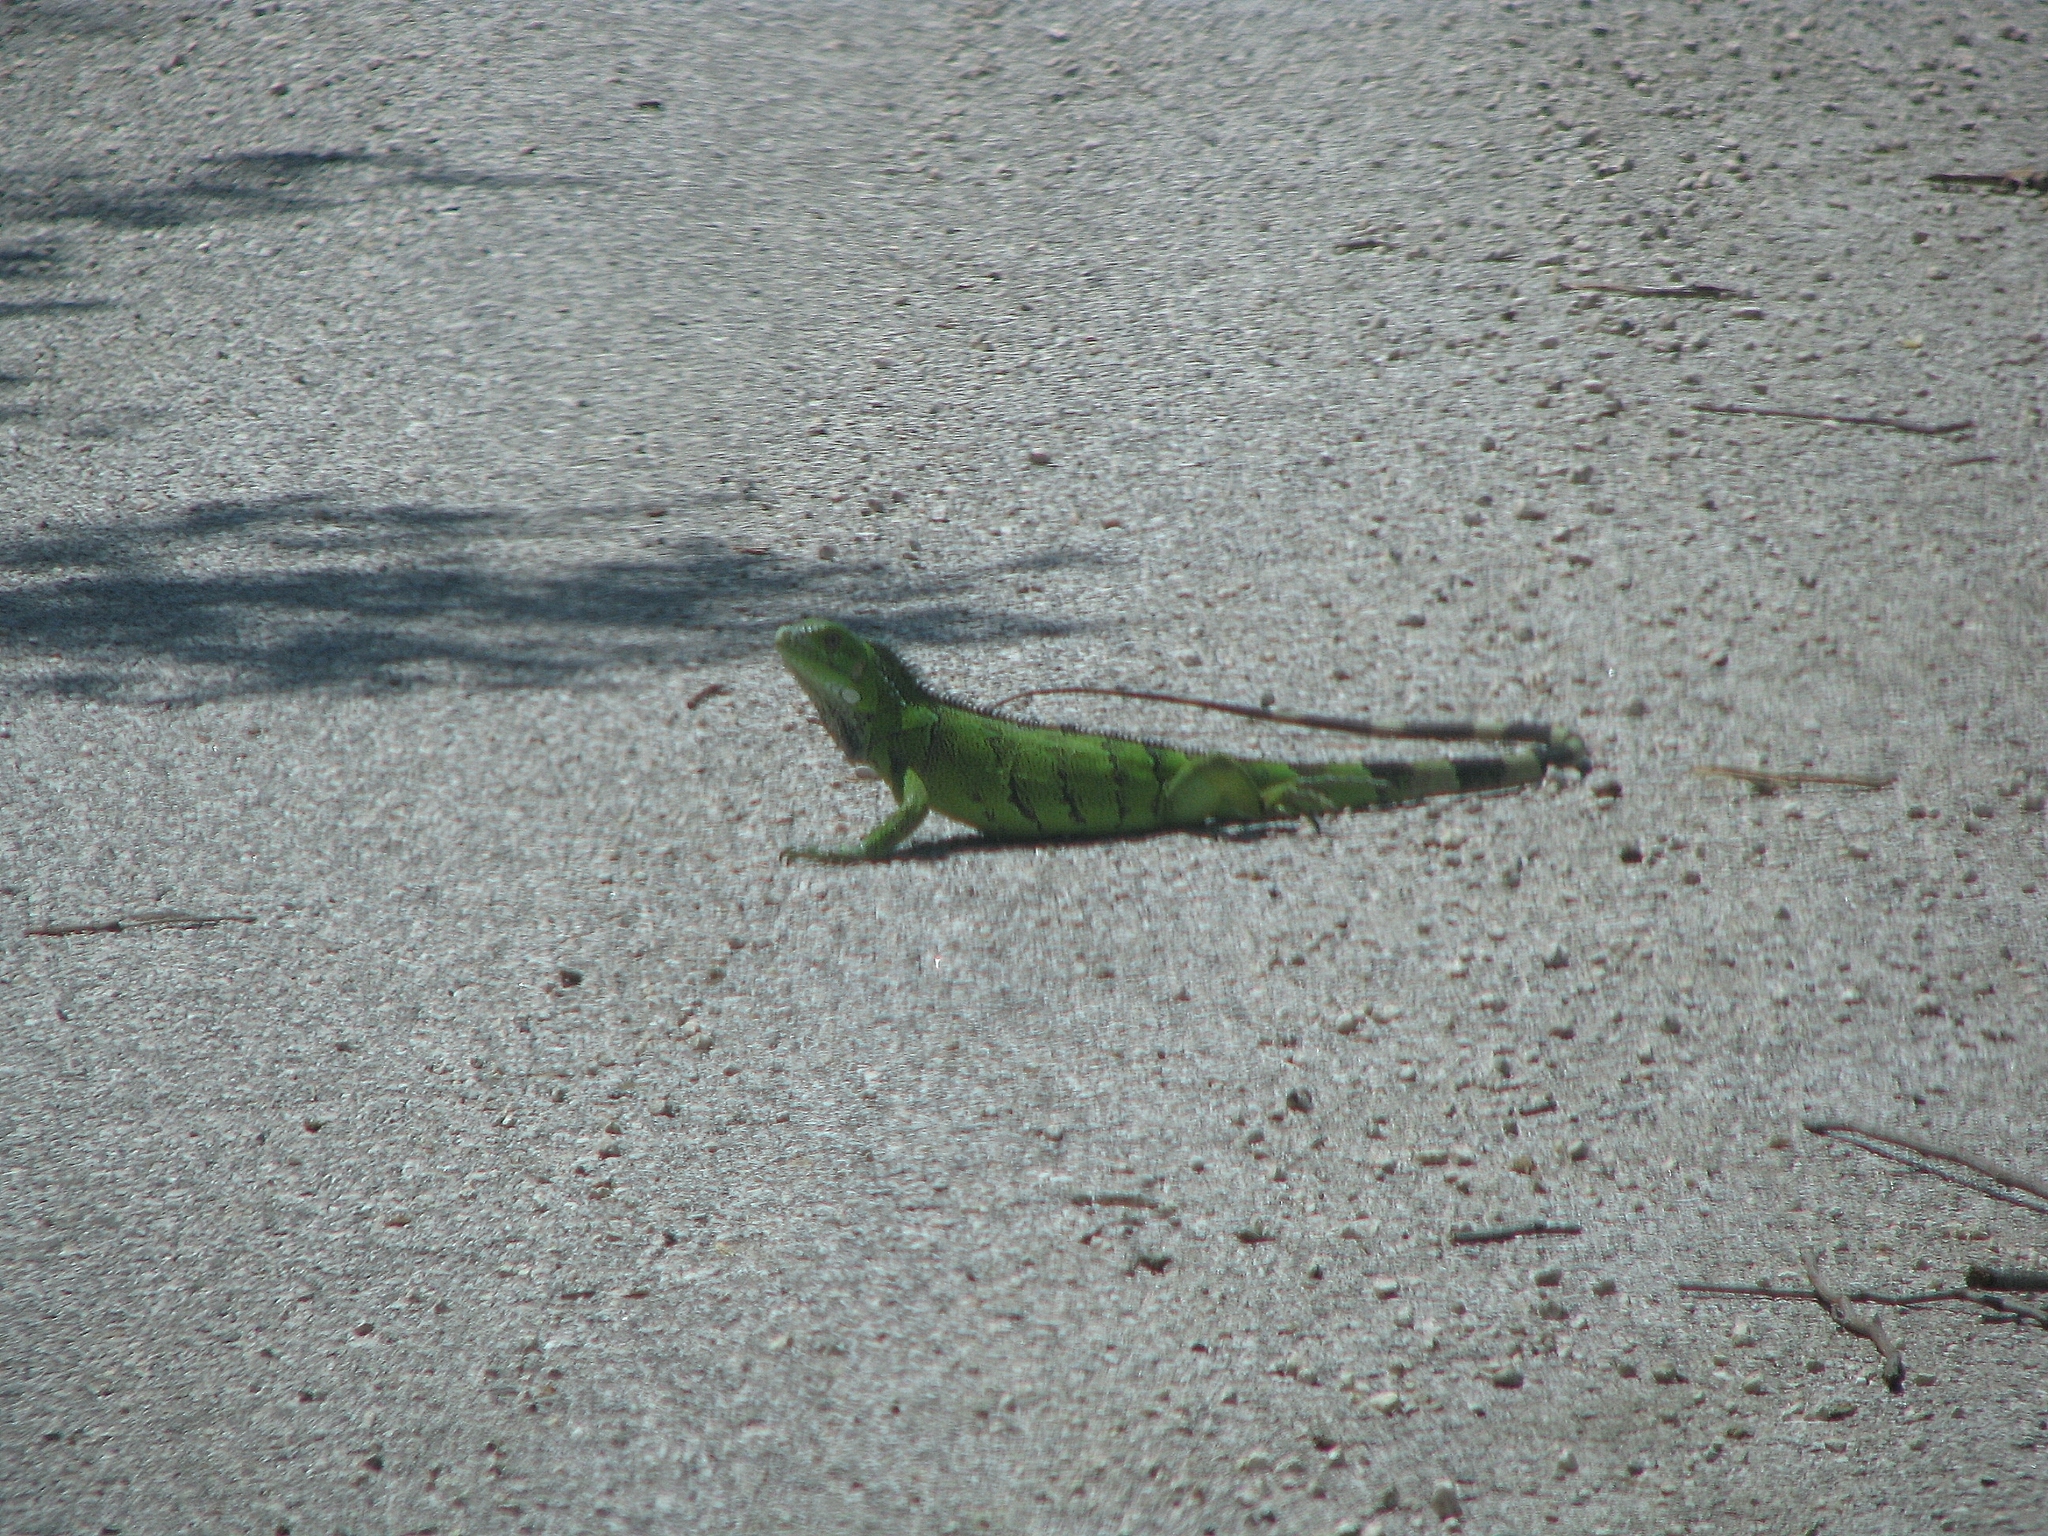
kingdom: Animalia
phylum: Chordata
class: Squamata
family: Iguanidae
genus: Iguana
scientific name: Iguana iguana
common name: Green iguana
